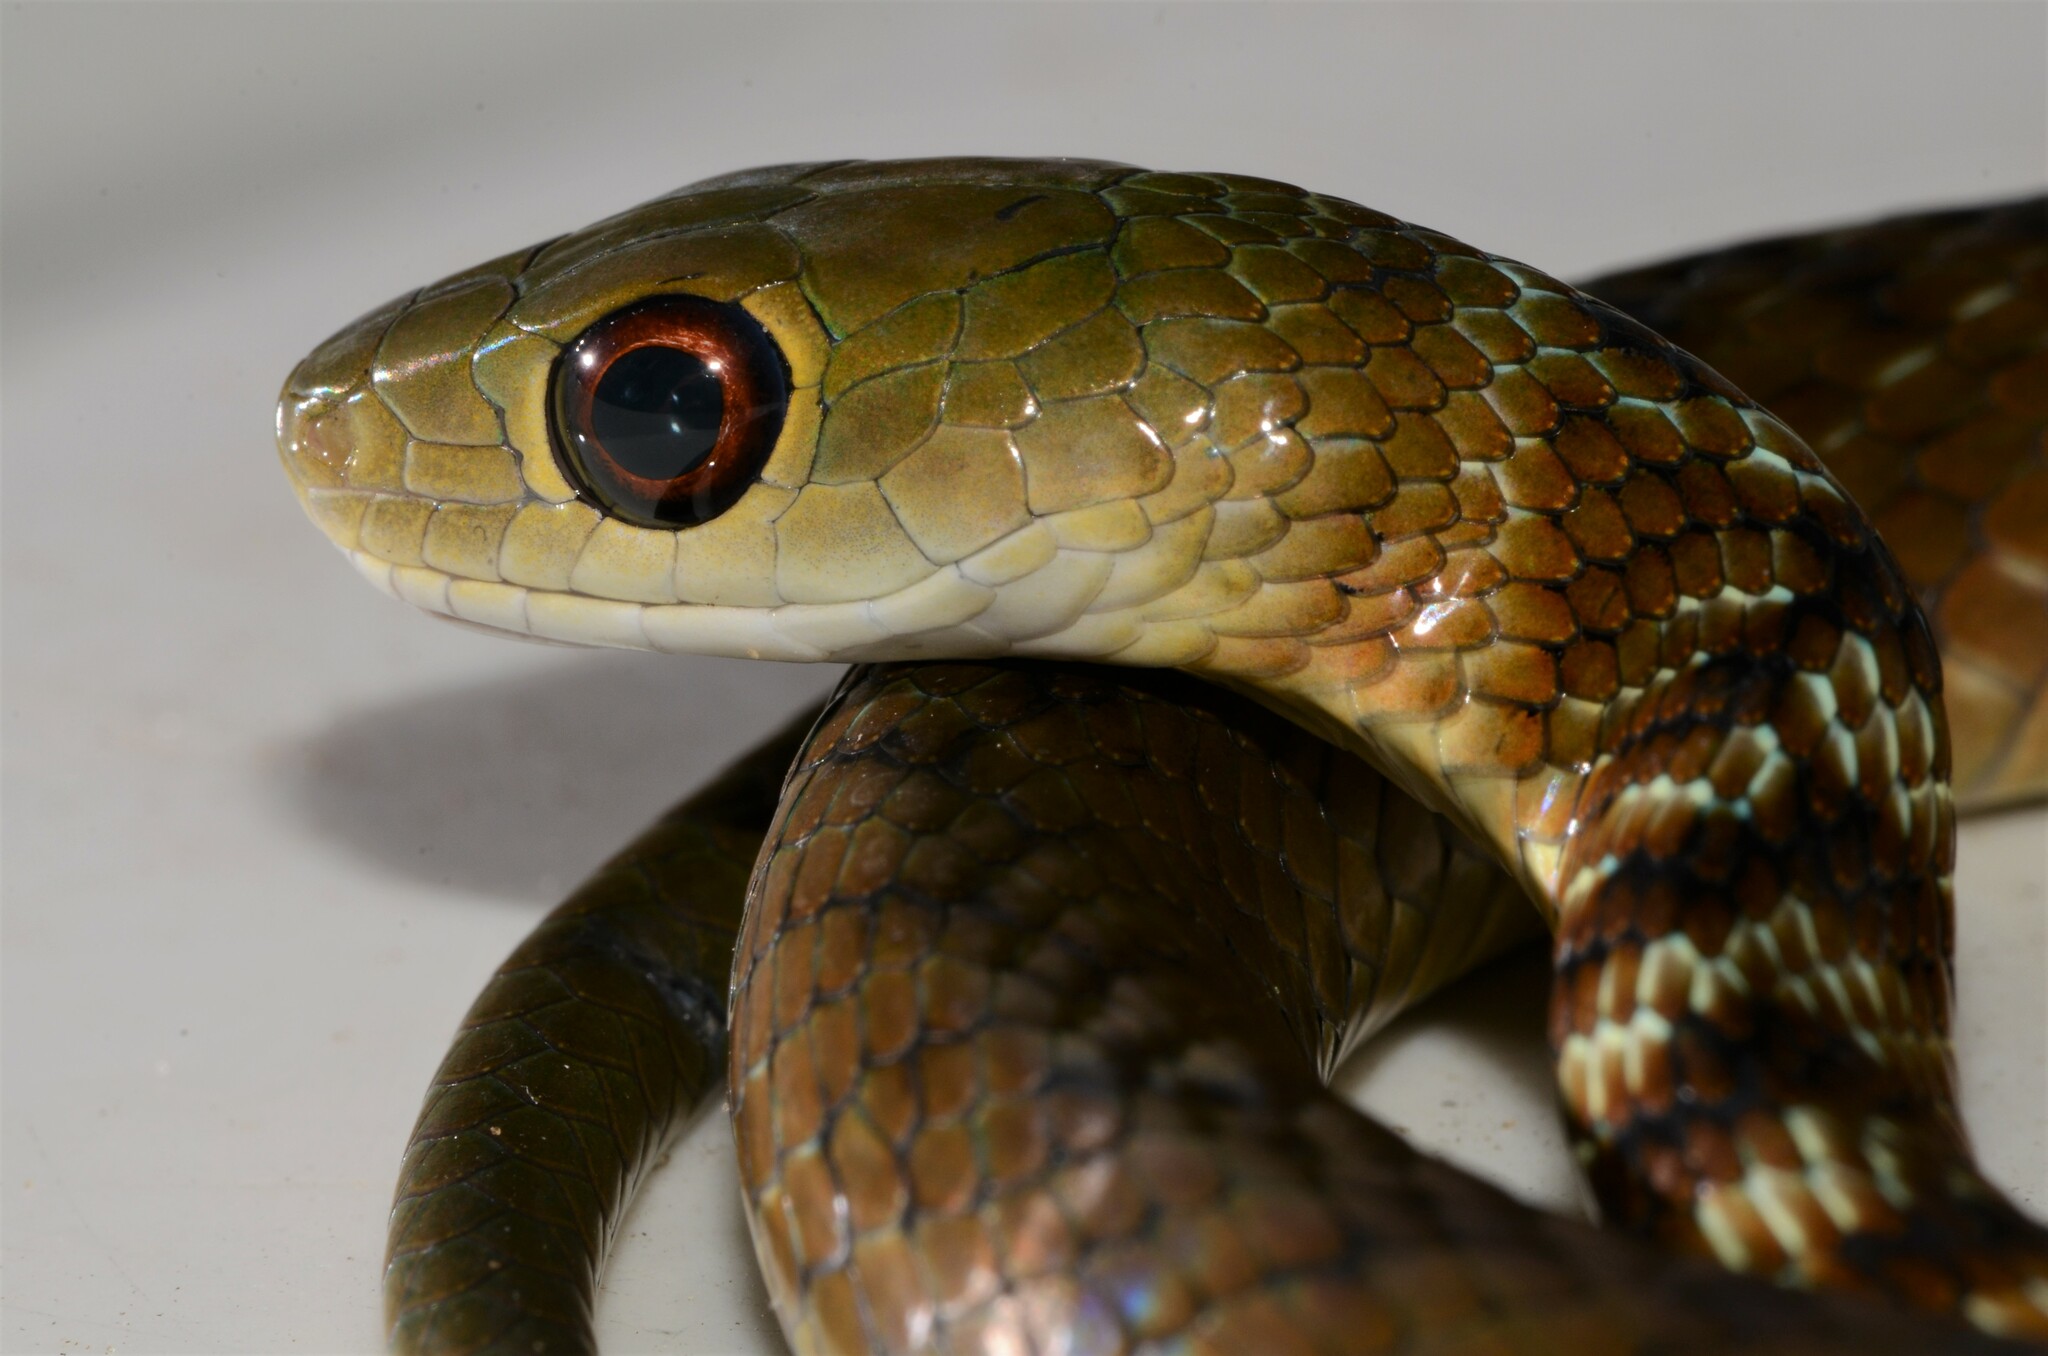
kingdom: Animalia
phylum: Chordata
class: Squamata
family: Colubridae
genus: Philothamnus
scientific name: Philothamnus mayombensis
